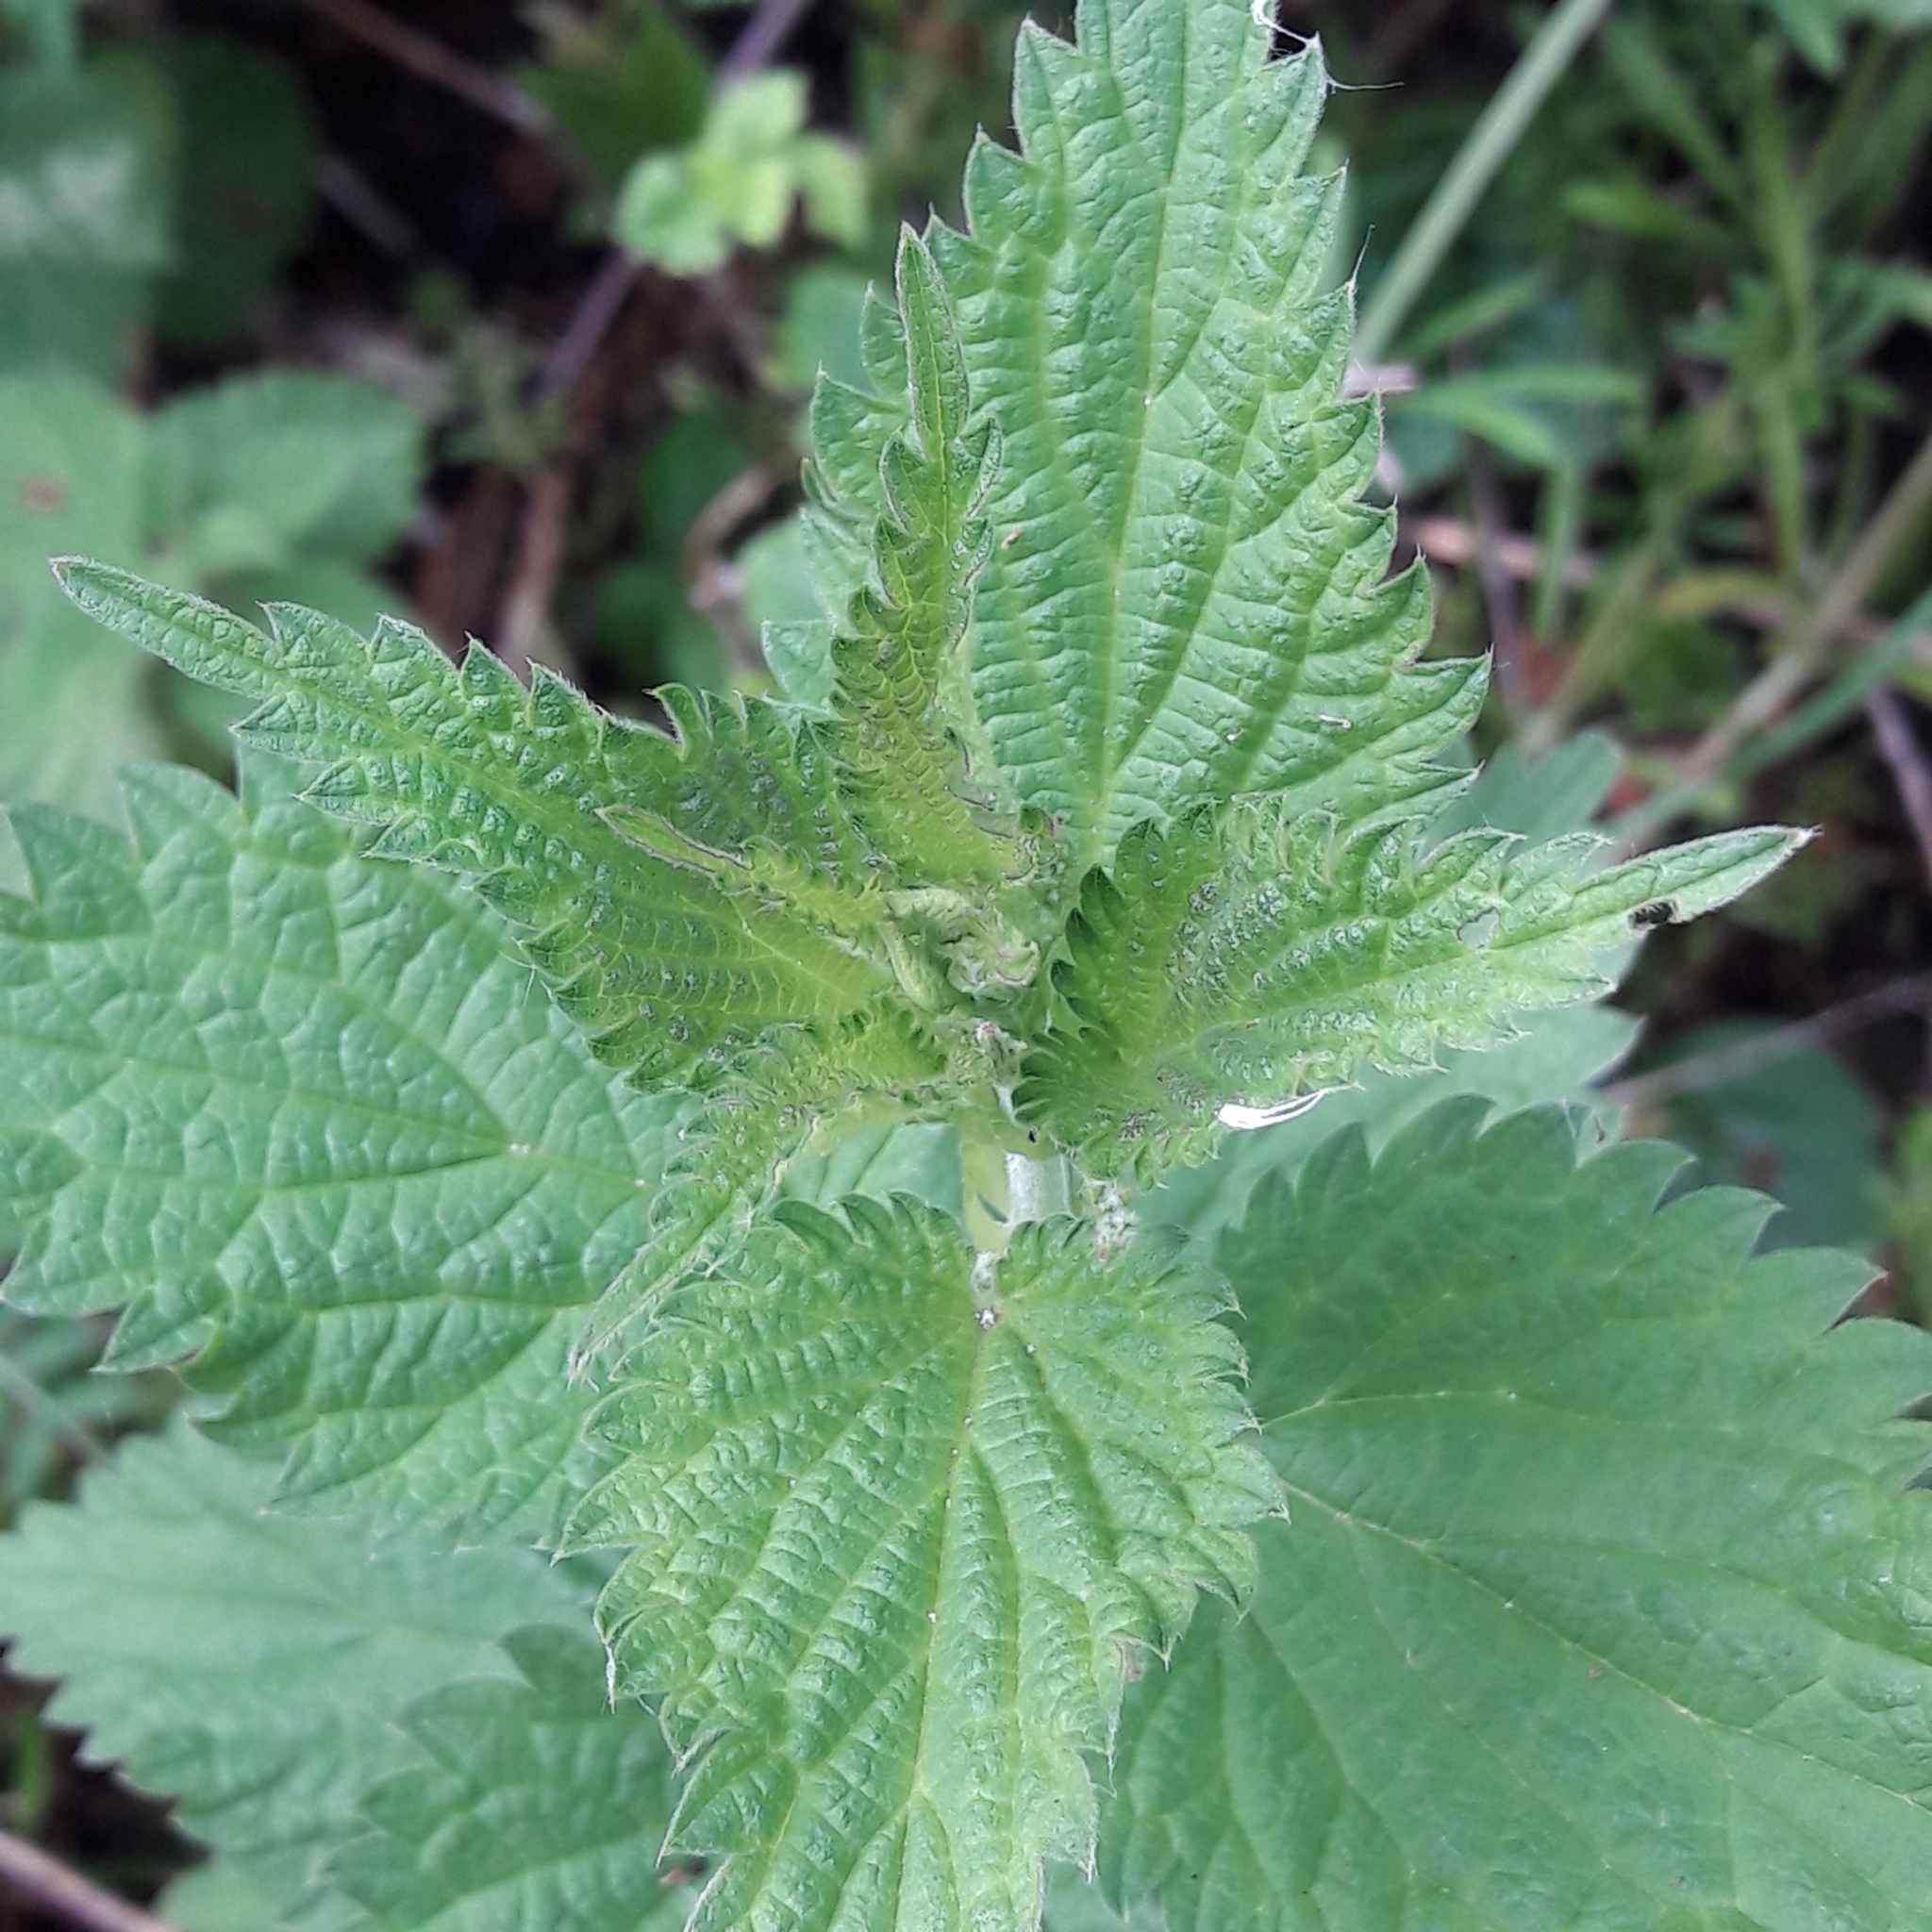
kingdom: Plantae
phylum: Tracheophyta
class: Magnoliopsida
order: Rosales
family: Urticaceae
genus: Urtica
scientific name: Urtica dioica
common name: Common nettle
